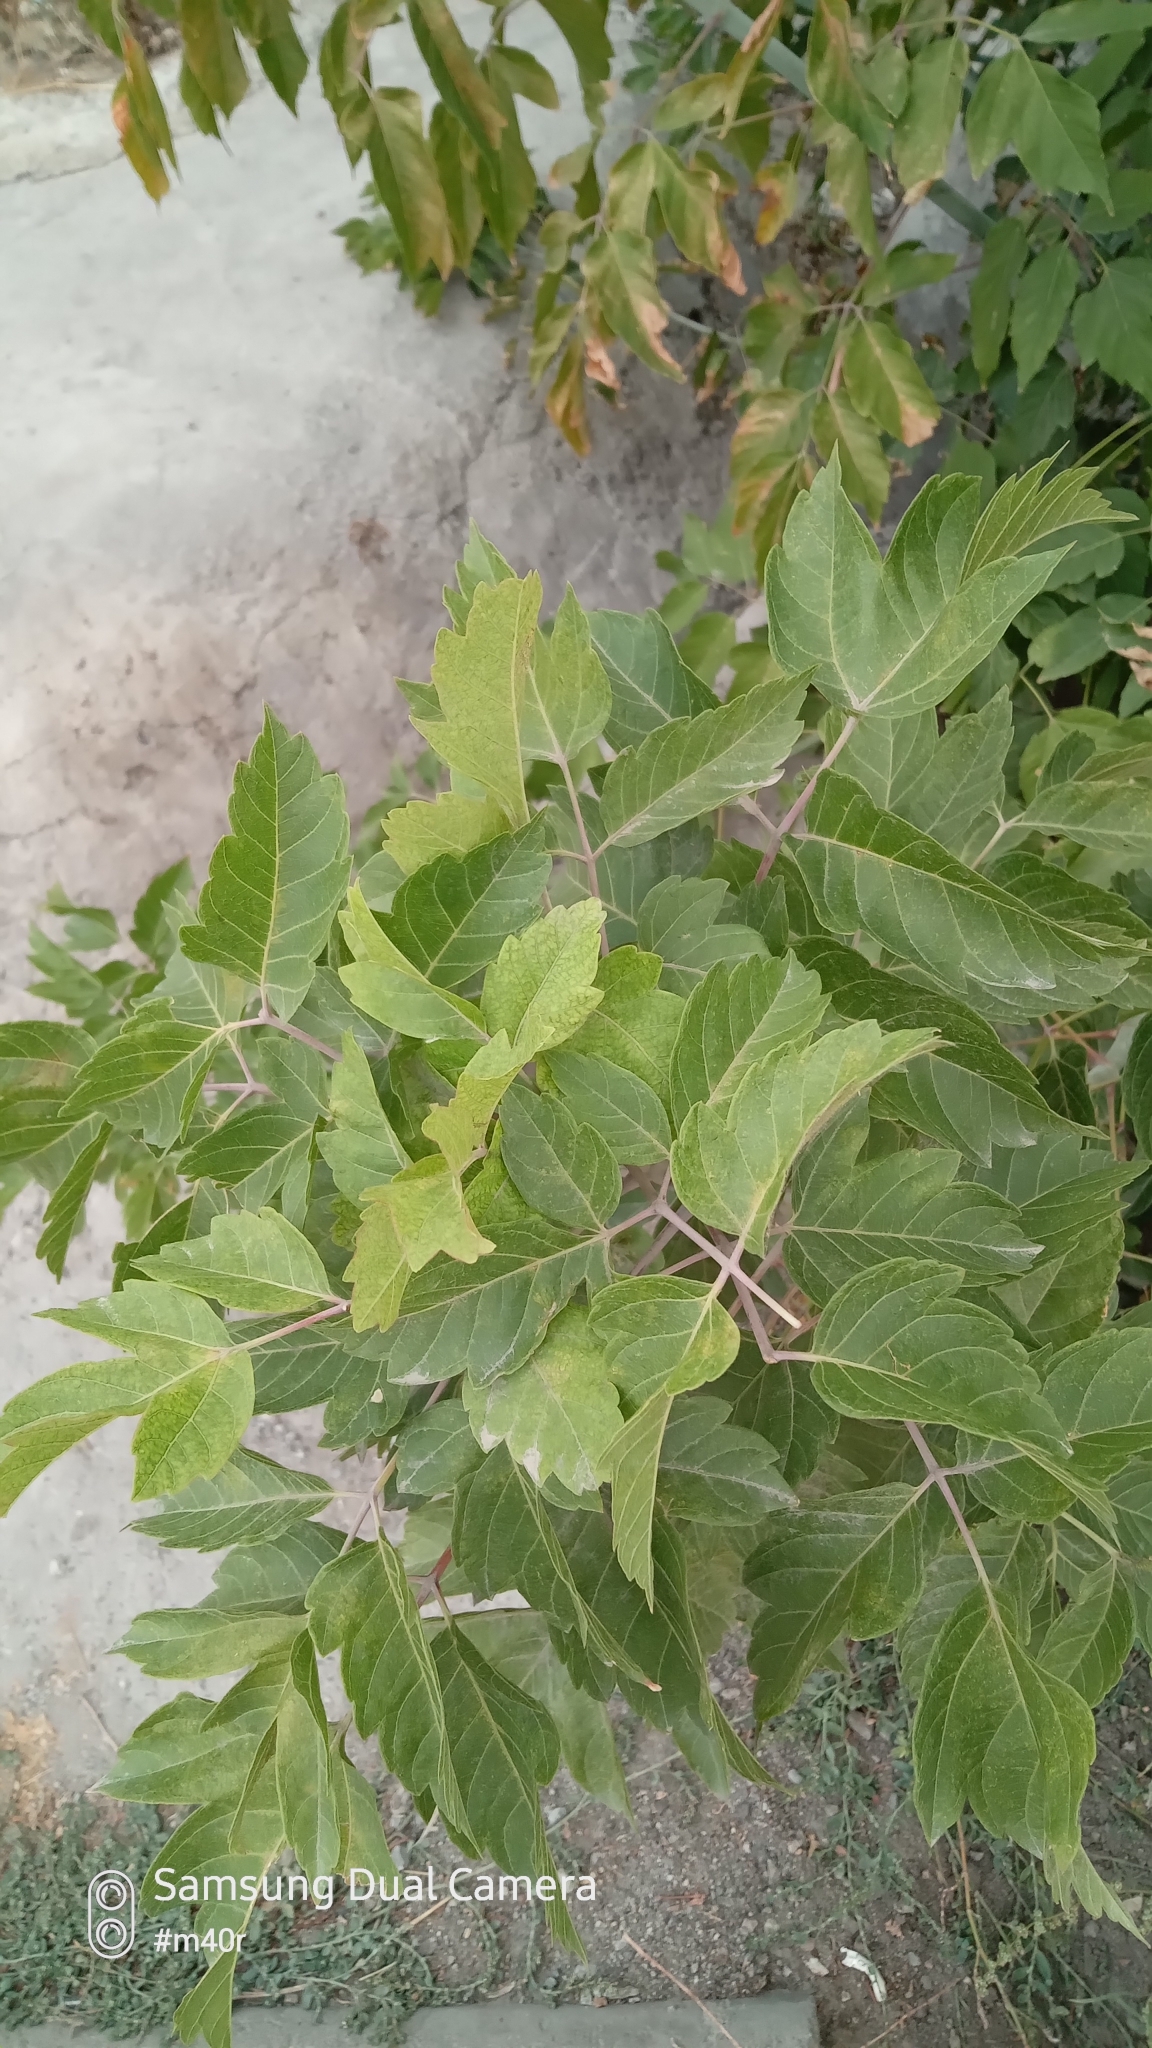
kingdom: Plantae
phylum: Tracheophyta
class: Magnoliopsida
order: Sapindales
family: Sapindaceae
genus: Acer
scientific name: Acer negundo
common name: Ashleaf maple
